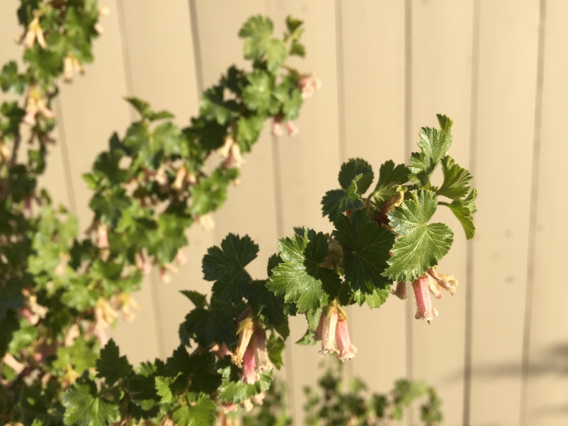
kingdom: Plantae
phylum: Tracheophyta
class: Magnoliopsida
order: Saxifragales
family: Grossulariaceae
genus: Ribes
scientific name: Ribes cereum
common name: Wax currant
